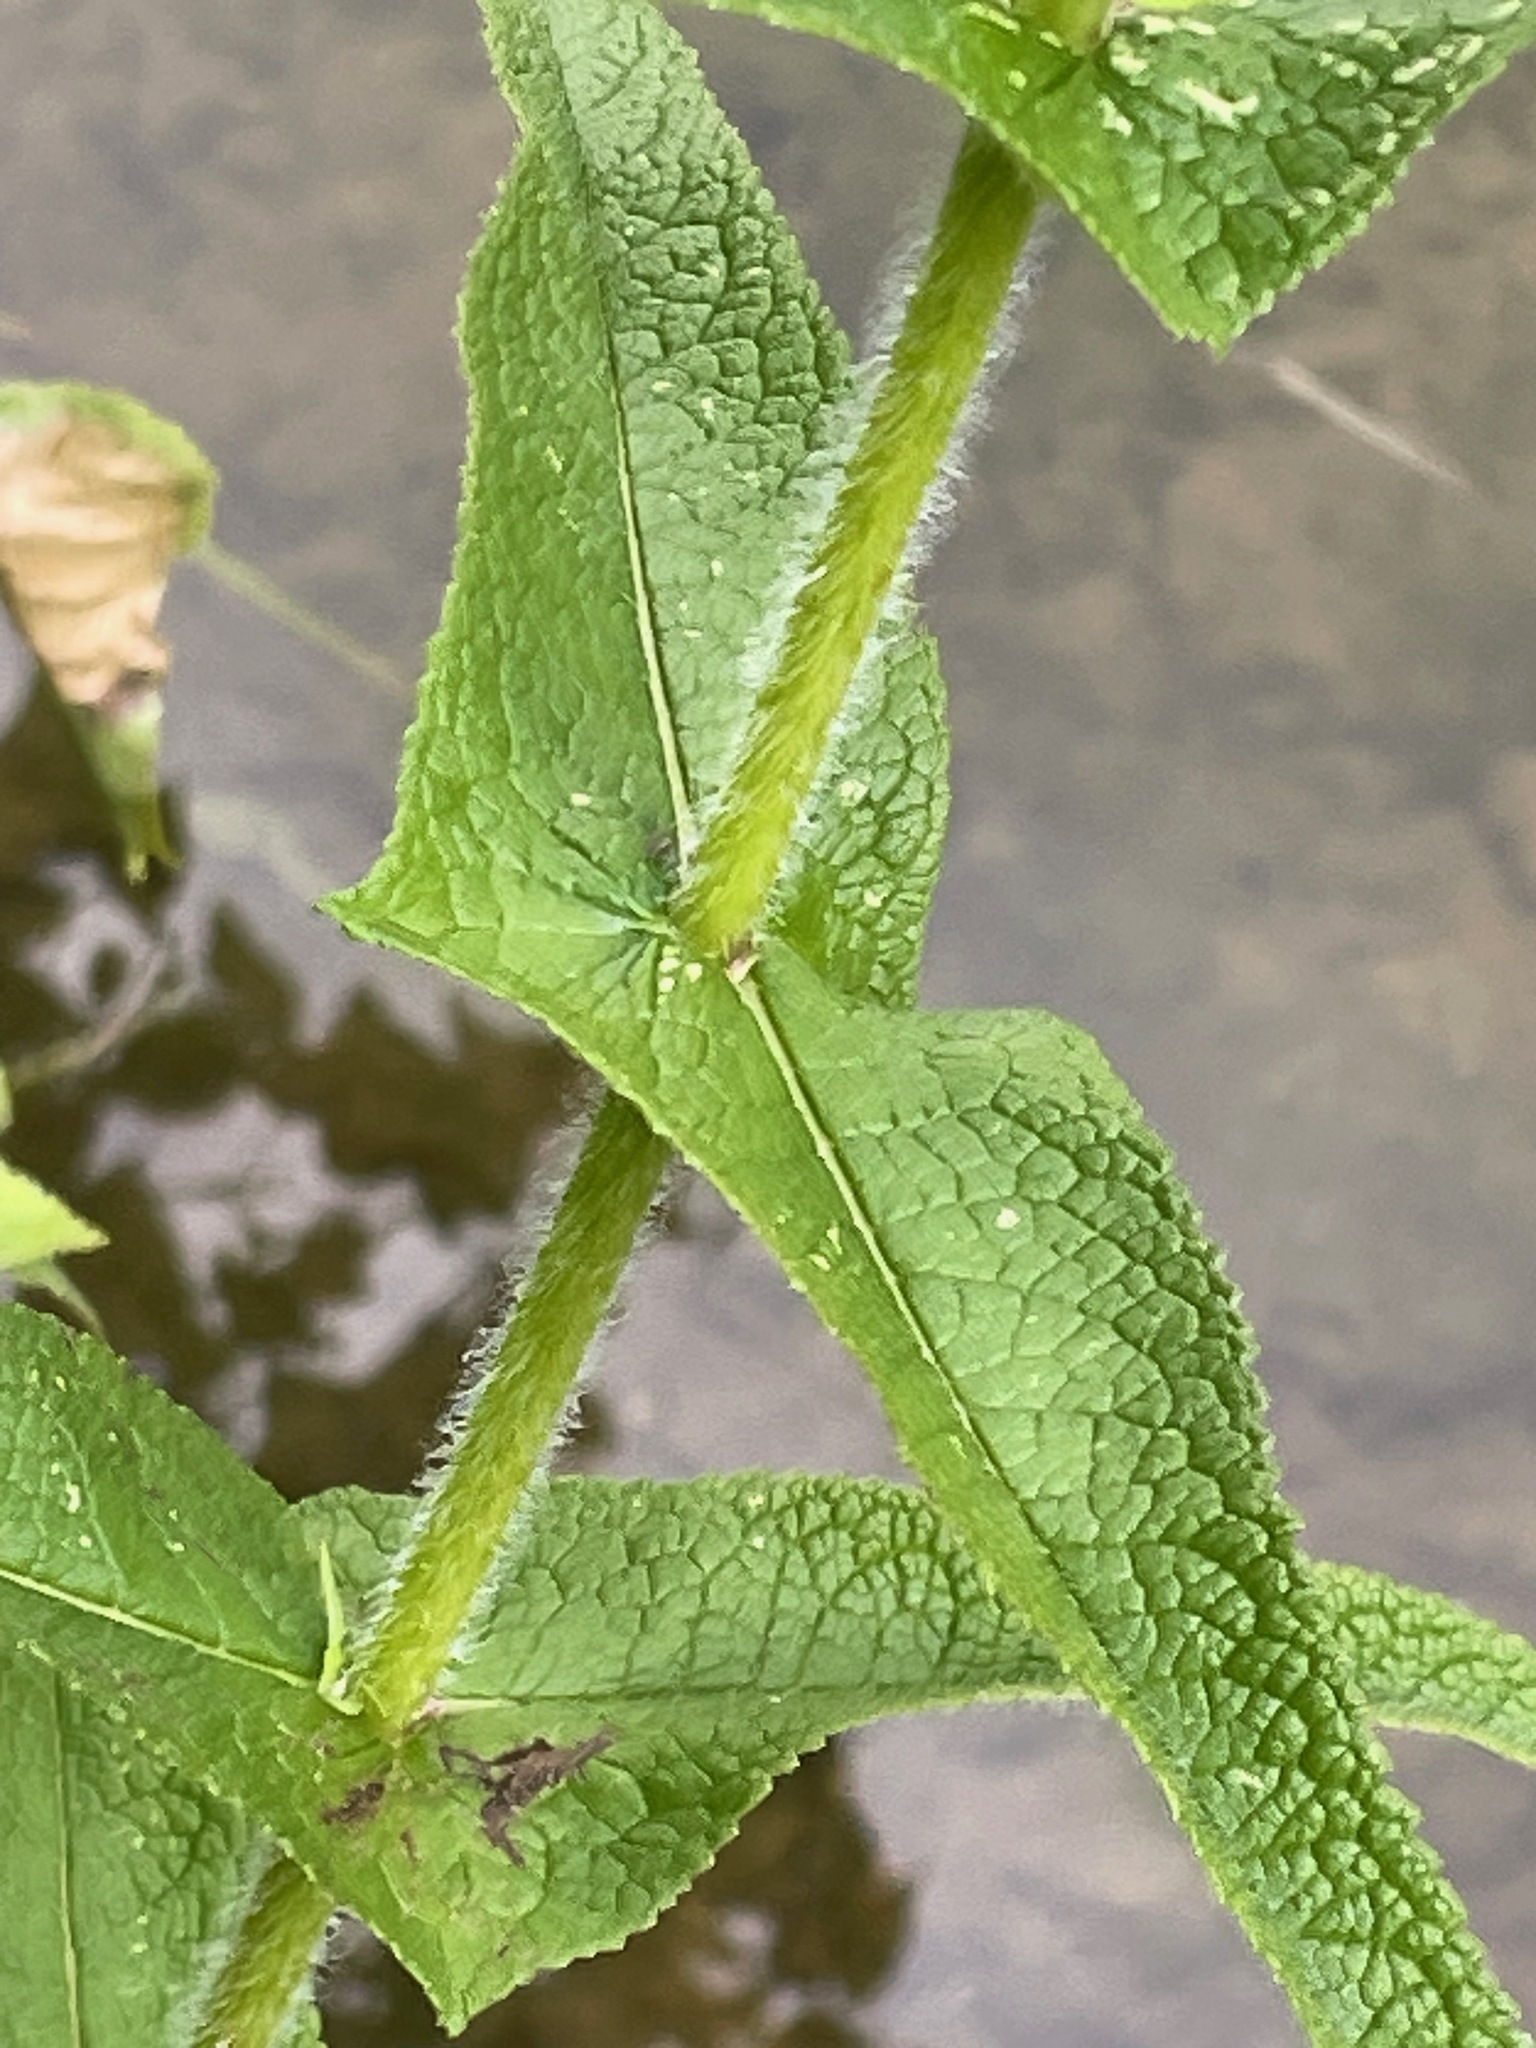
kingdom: Plantae
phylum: Tracheophyta
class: Magnoliopsida
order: Asterales
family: Asteraceae
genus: Eupatorium
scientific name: Eupatorium perfoliatum
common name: Boneset
